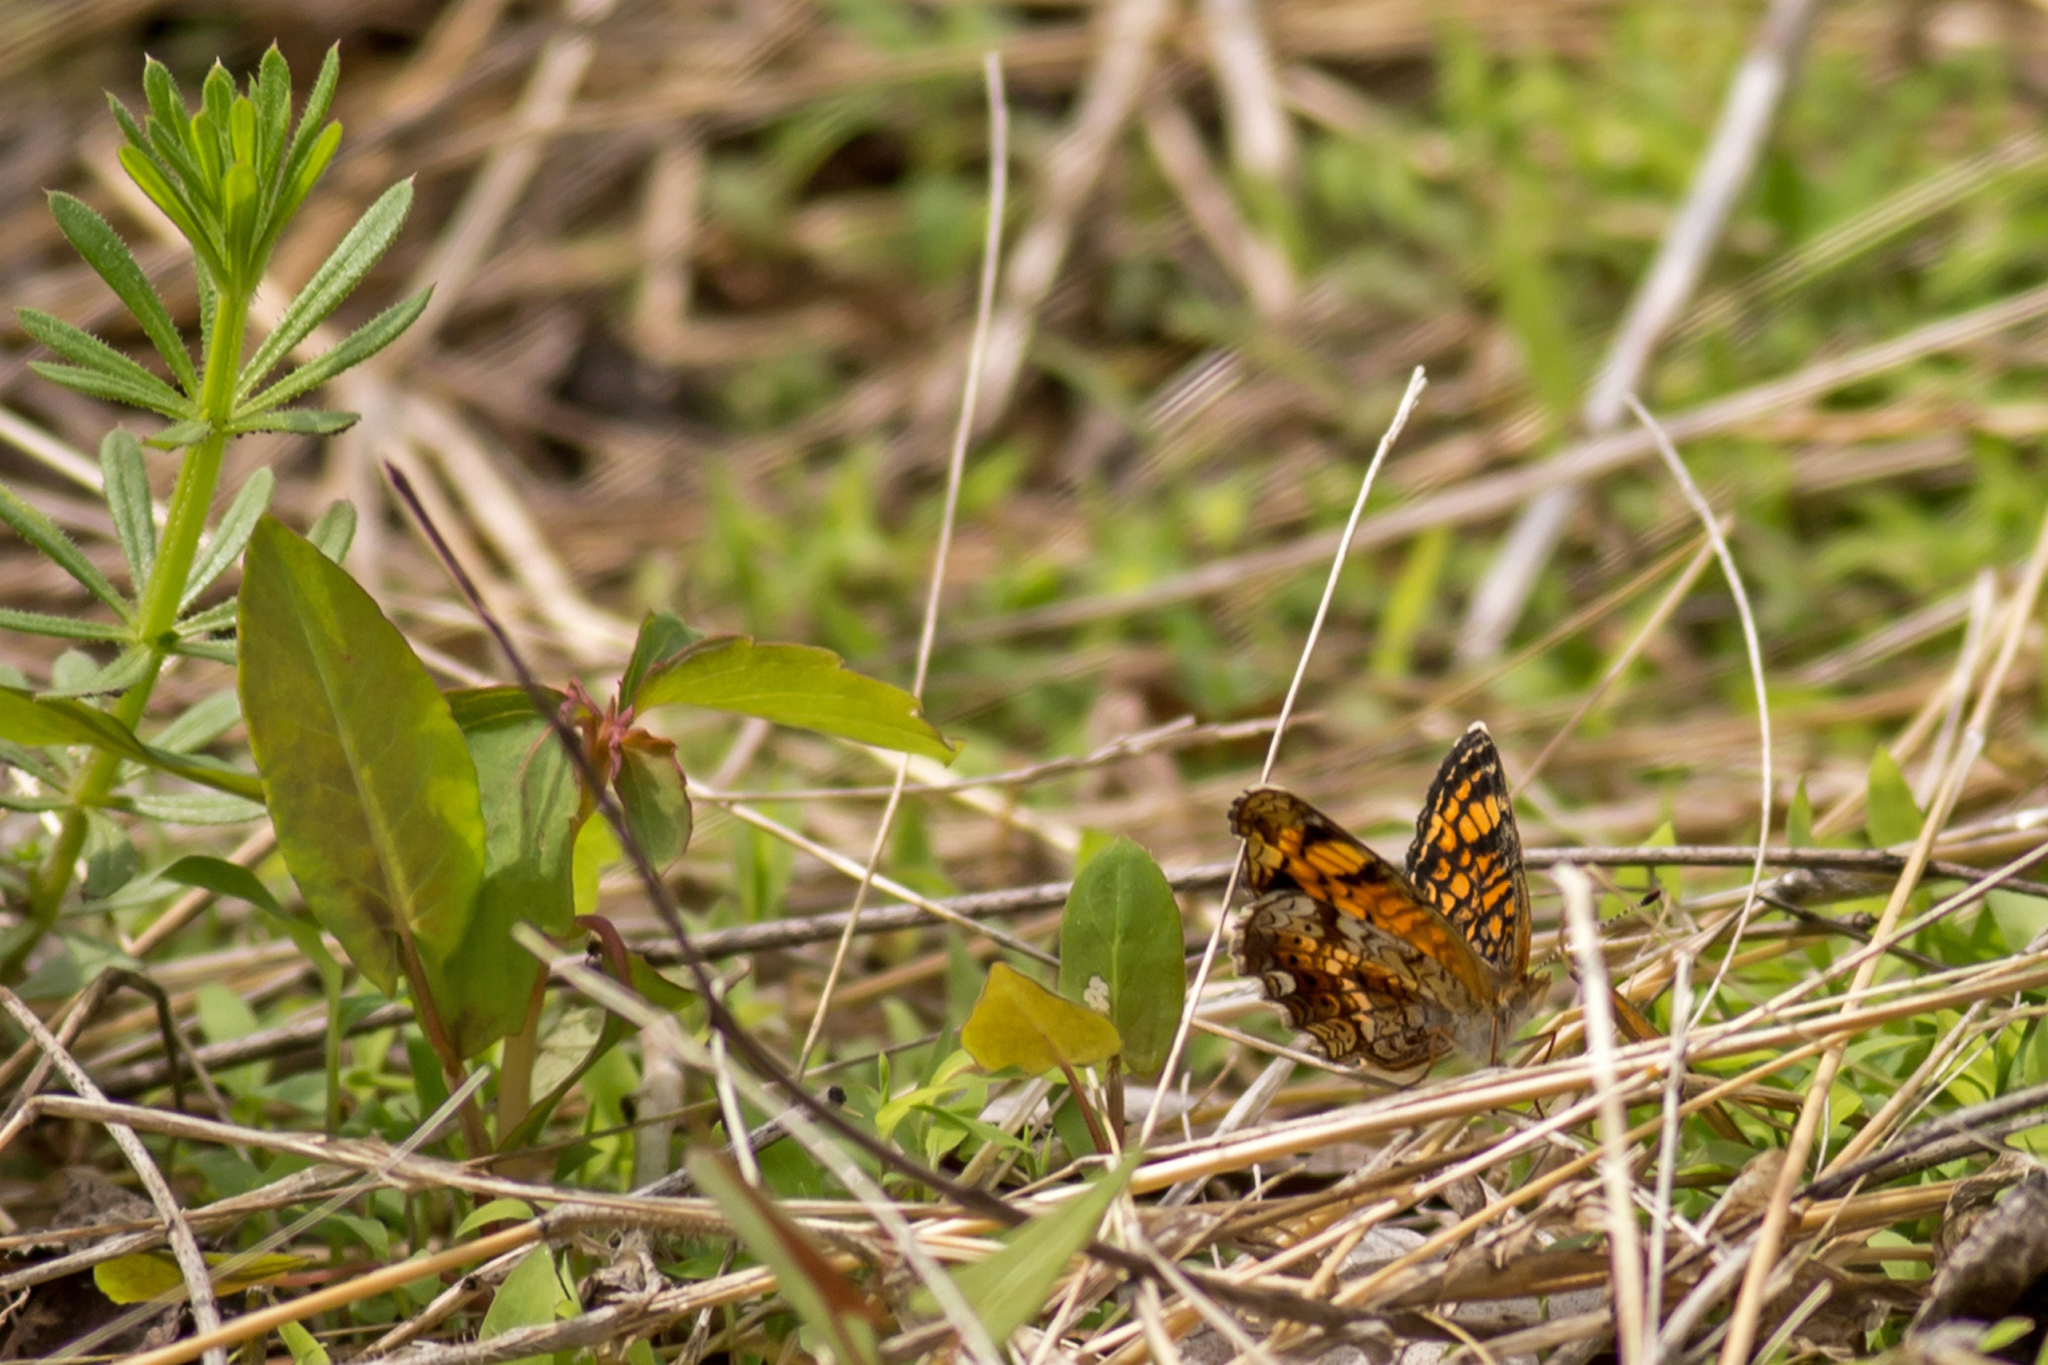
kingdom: Animalia
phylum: Arthropoda
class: Insecta
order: Lepidoptera
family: Nymphalidae
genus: Phyciodes
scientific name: Phyciodes tharos
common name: Pearl crescent
